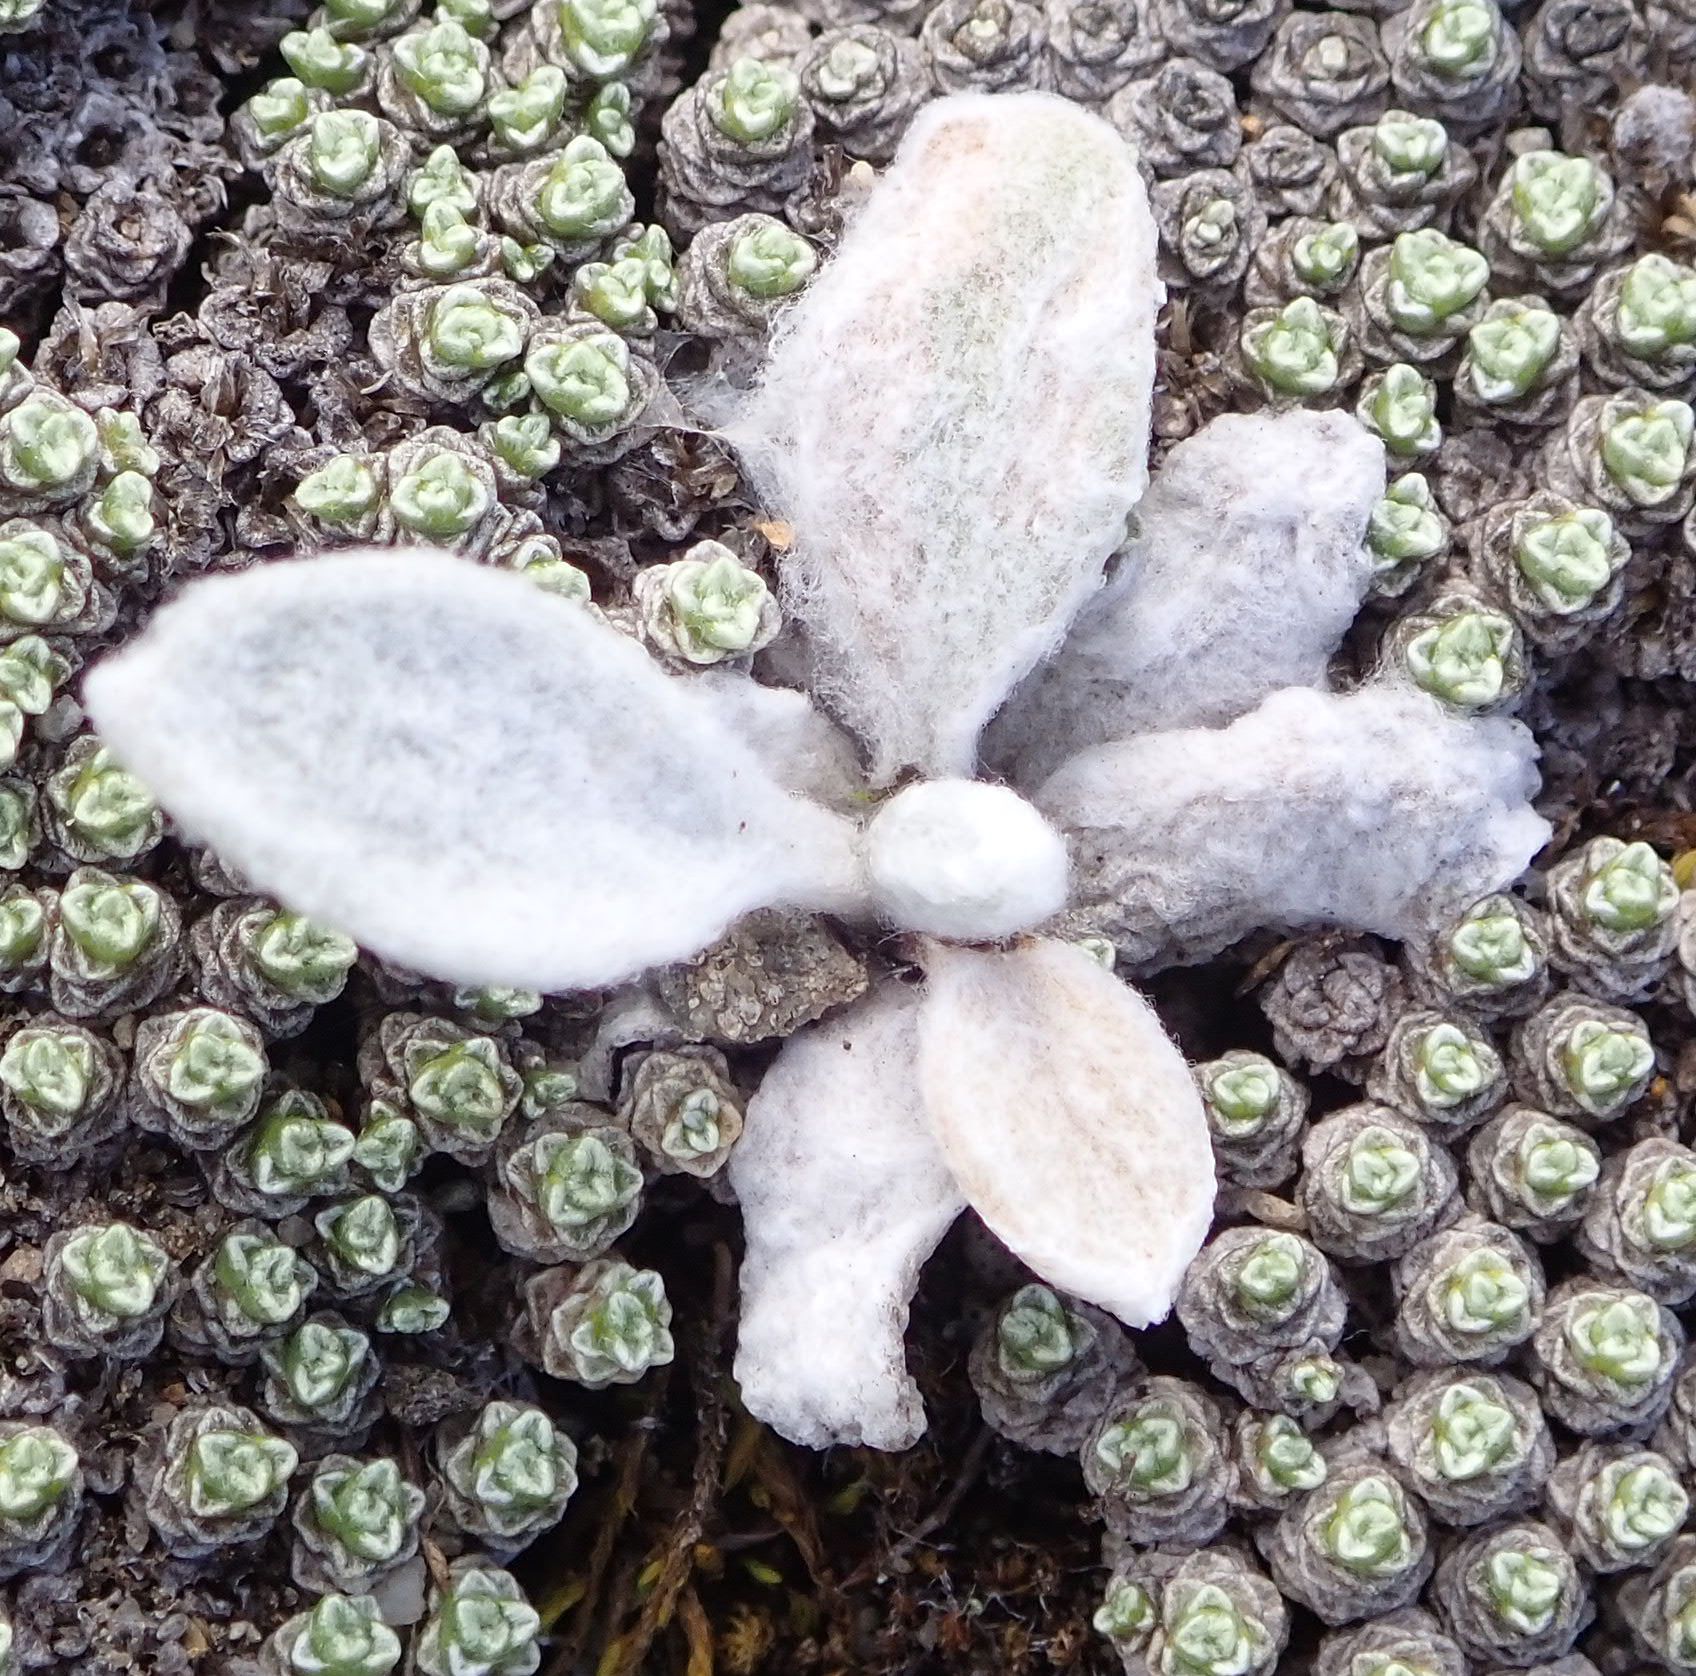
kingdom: Plantae
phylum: Tracheophyta
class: Magnoliopsida
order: Asterales
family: Asteraceae
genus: Craspedia
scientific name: Craspedia
